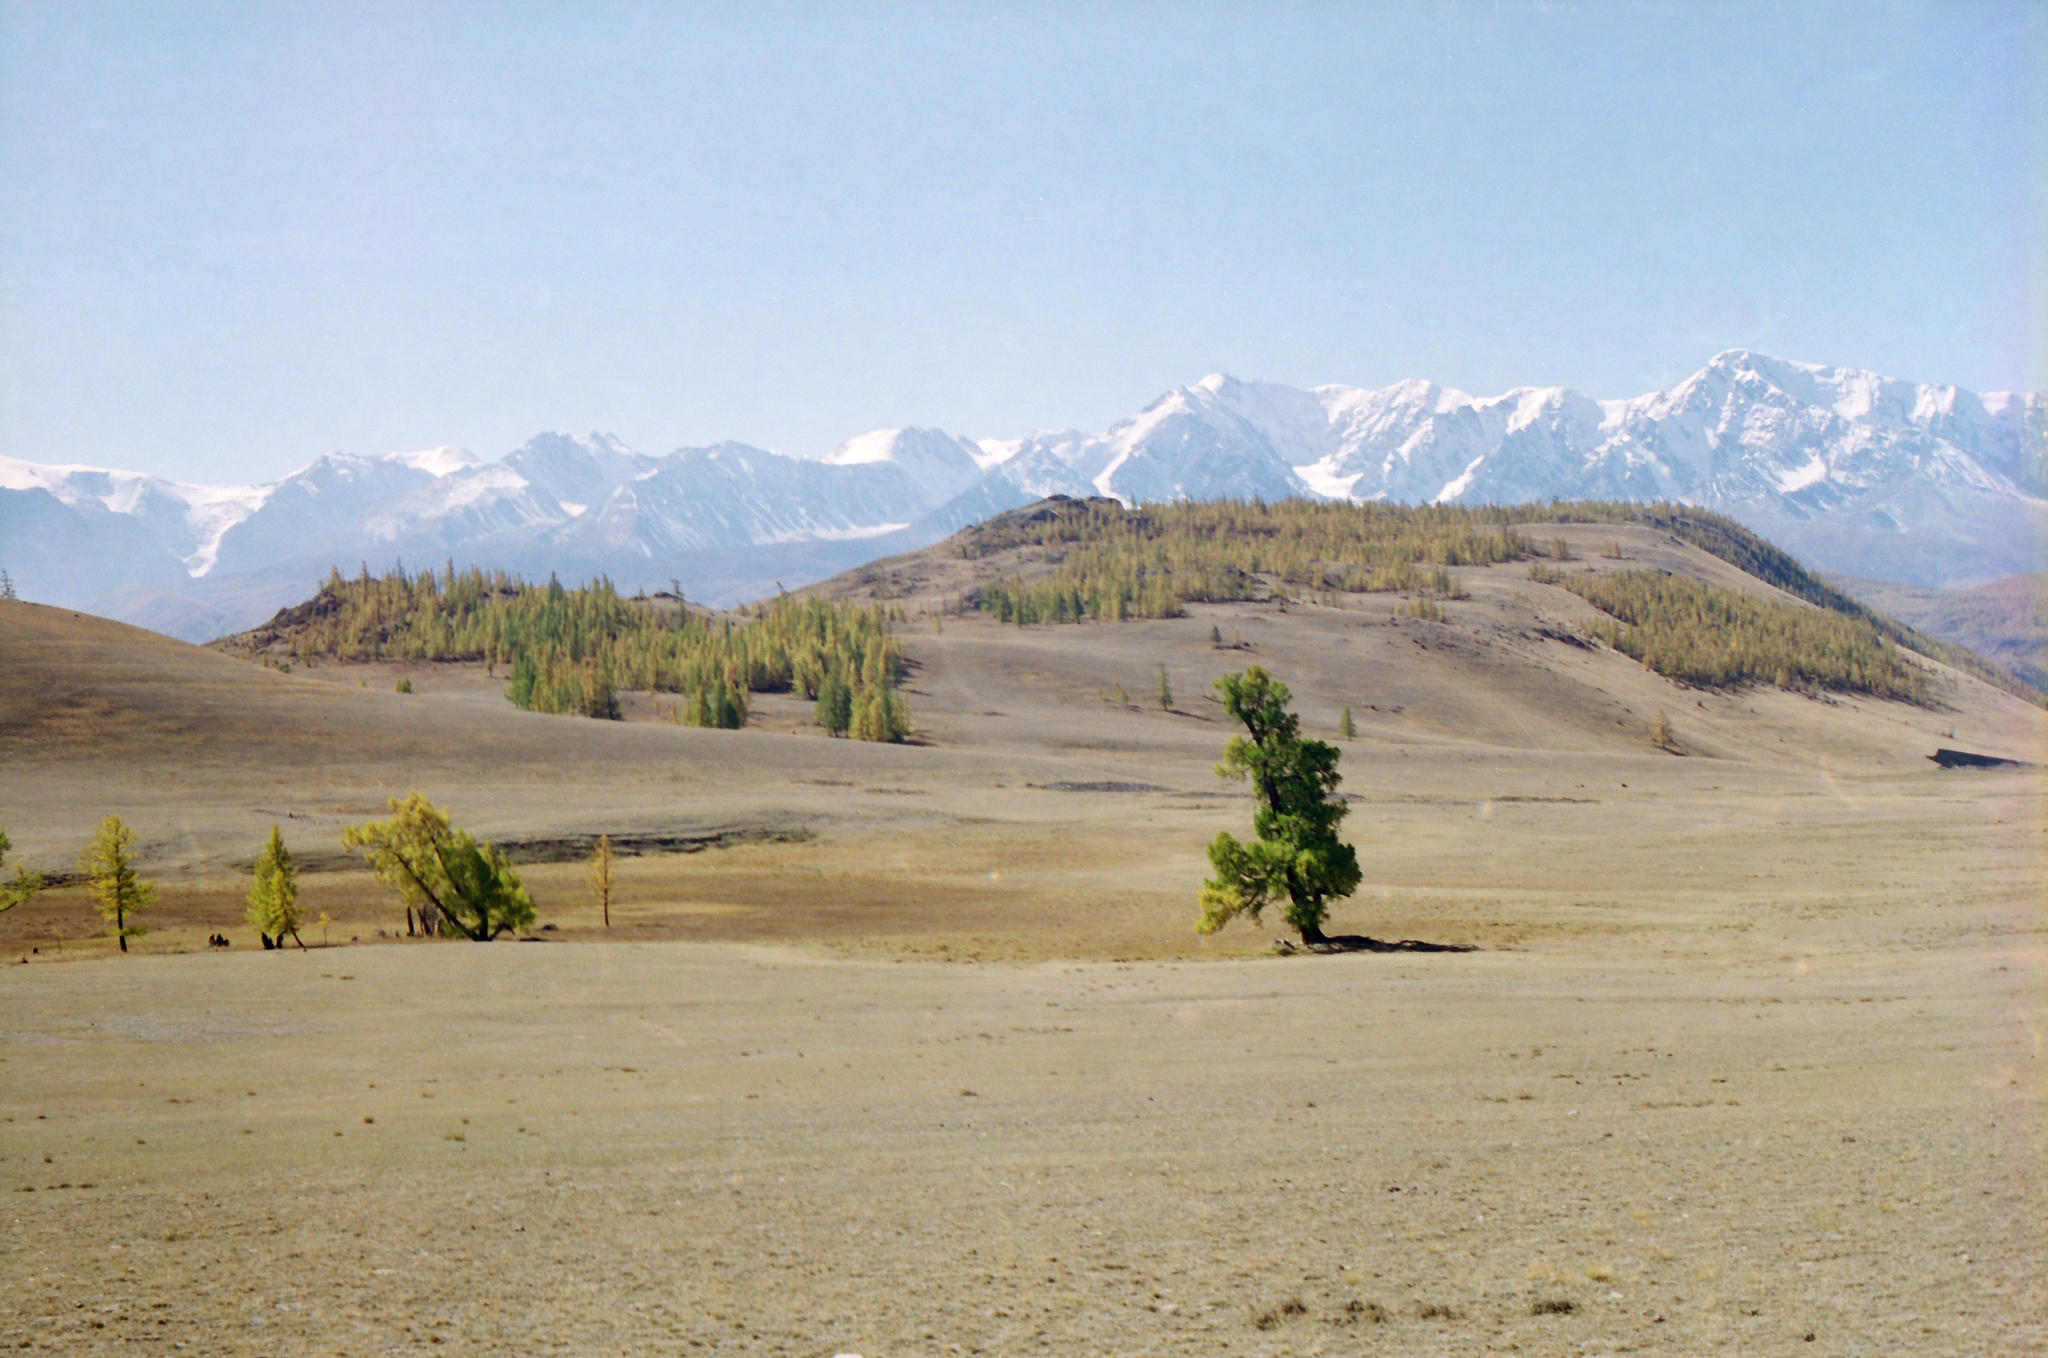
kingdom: Plantae
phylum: Tracheophyta
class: Pinopsida
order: Pinales
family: Pinaceae
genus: Larix
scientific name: Larix sibirica
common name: Siberian larch
